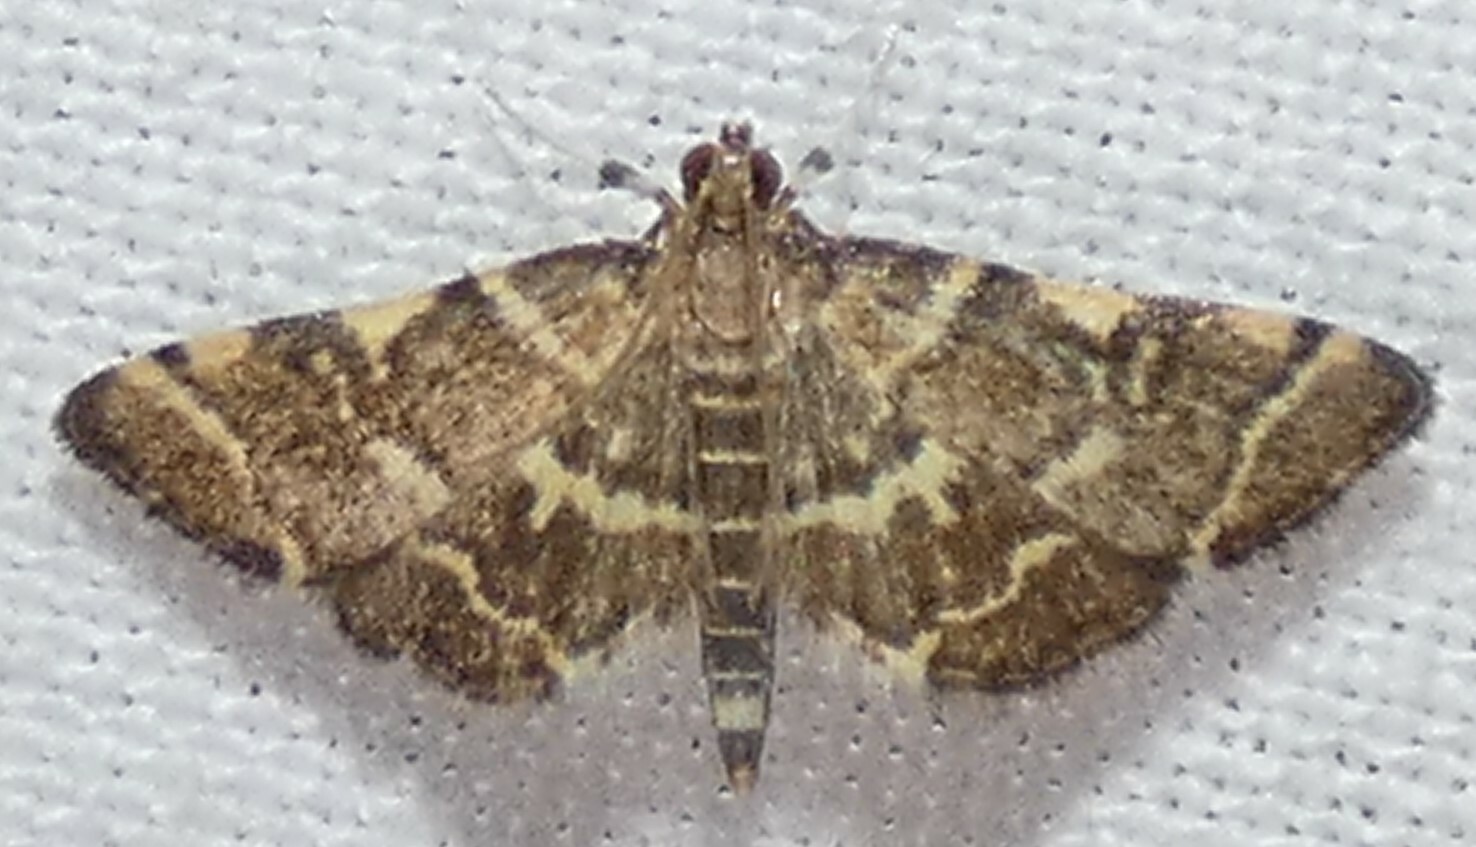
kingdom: Animalia
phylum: Arthropoda
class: Insecta
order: Lepidoptera
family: Crambidae
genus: Anageshna
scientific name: Anageshna primordialis
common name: Yellow-spotted webworm moth
